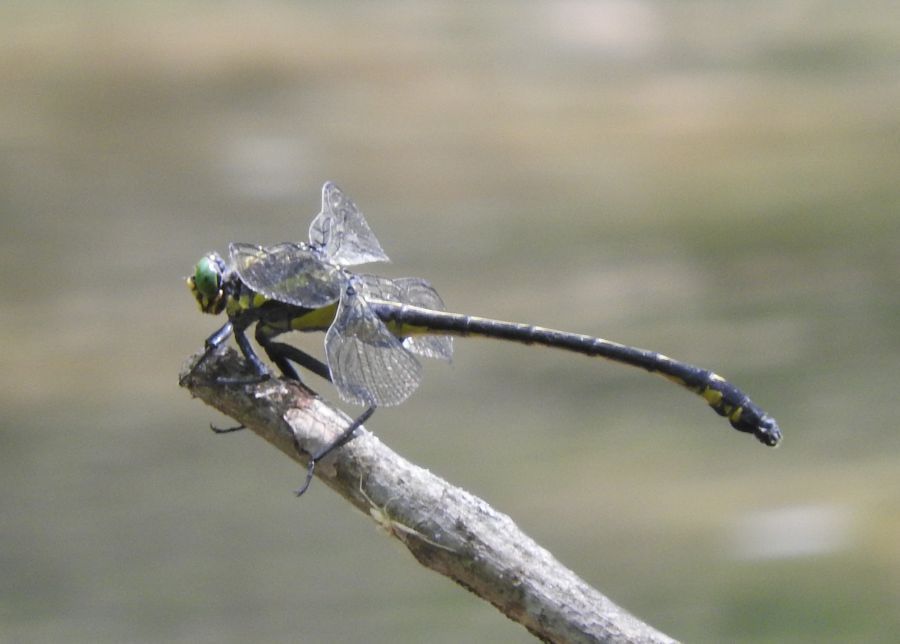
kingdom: Animalia
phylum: Arthropoda
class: Insecta
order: Odonata
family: Gomphidae
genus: Hagenius
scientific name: Hagenius brevistylus
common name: Dragonhunter
